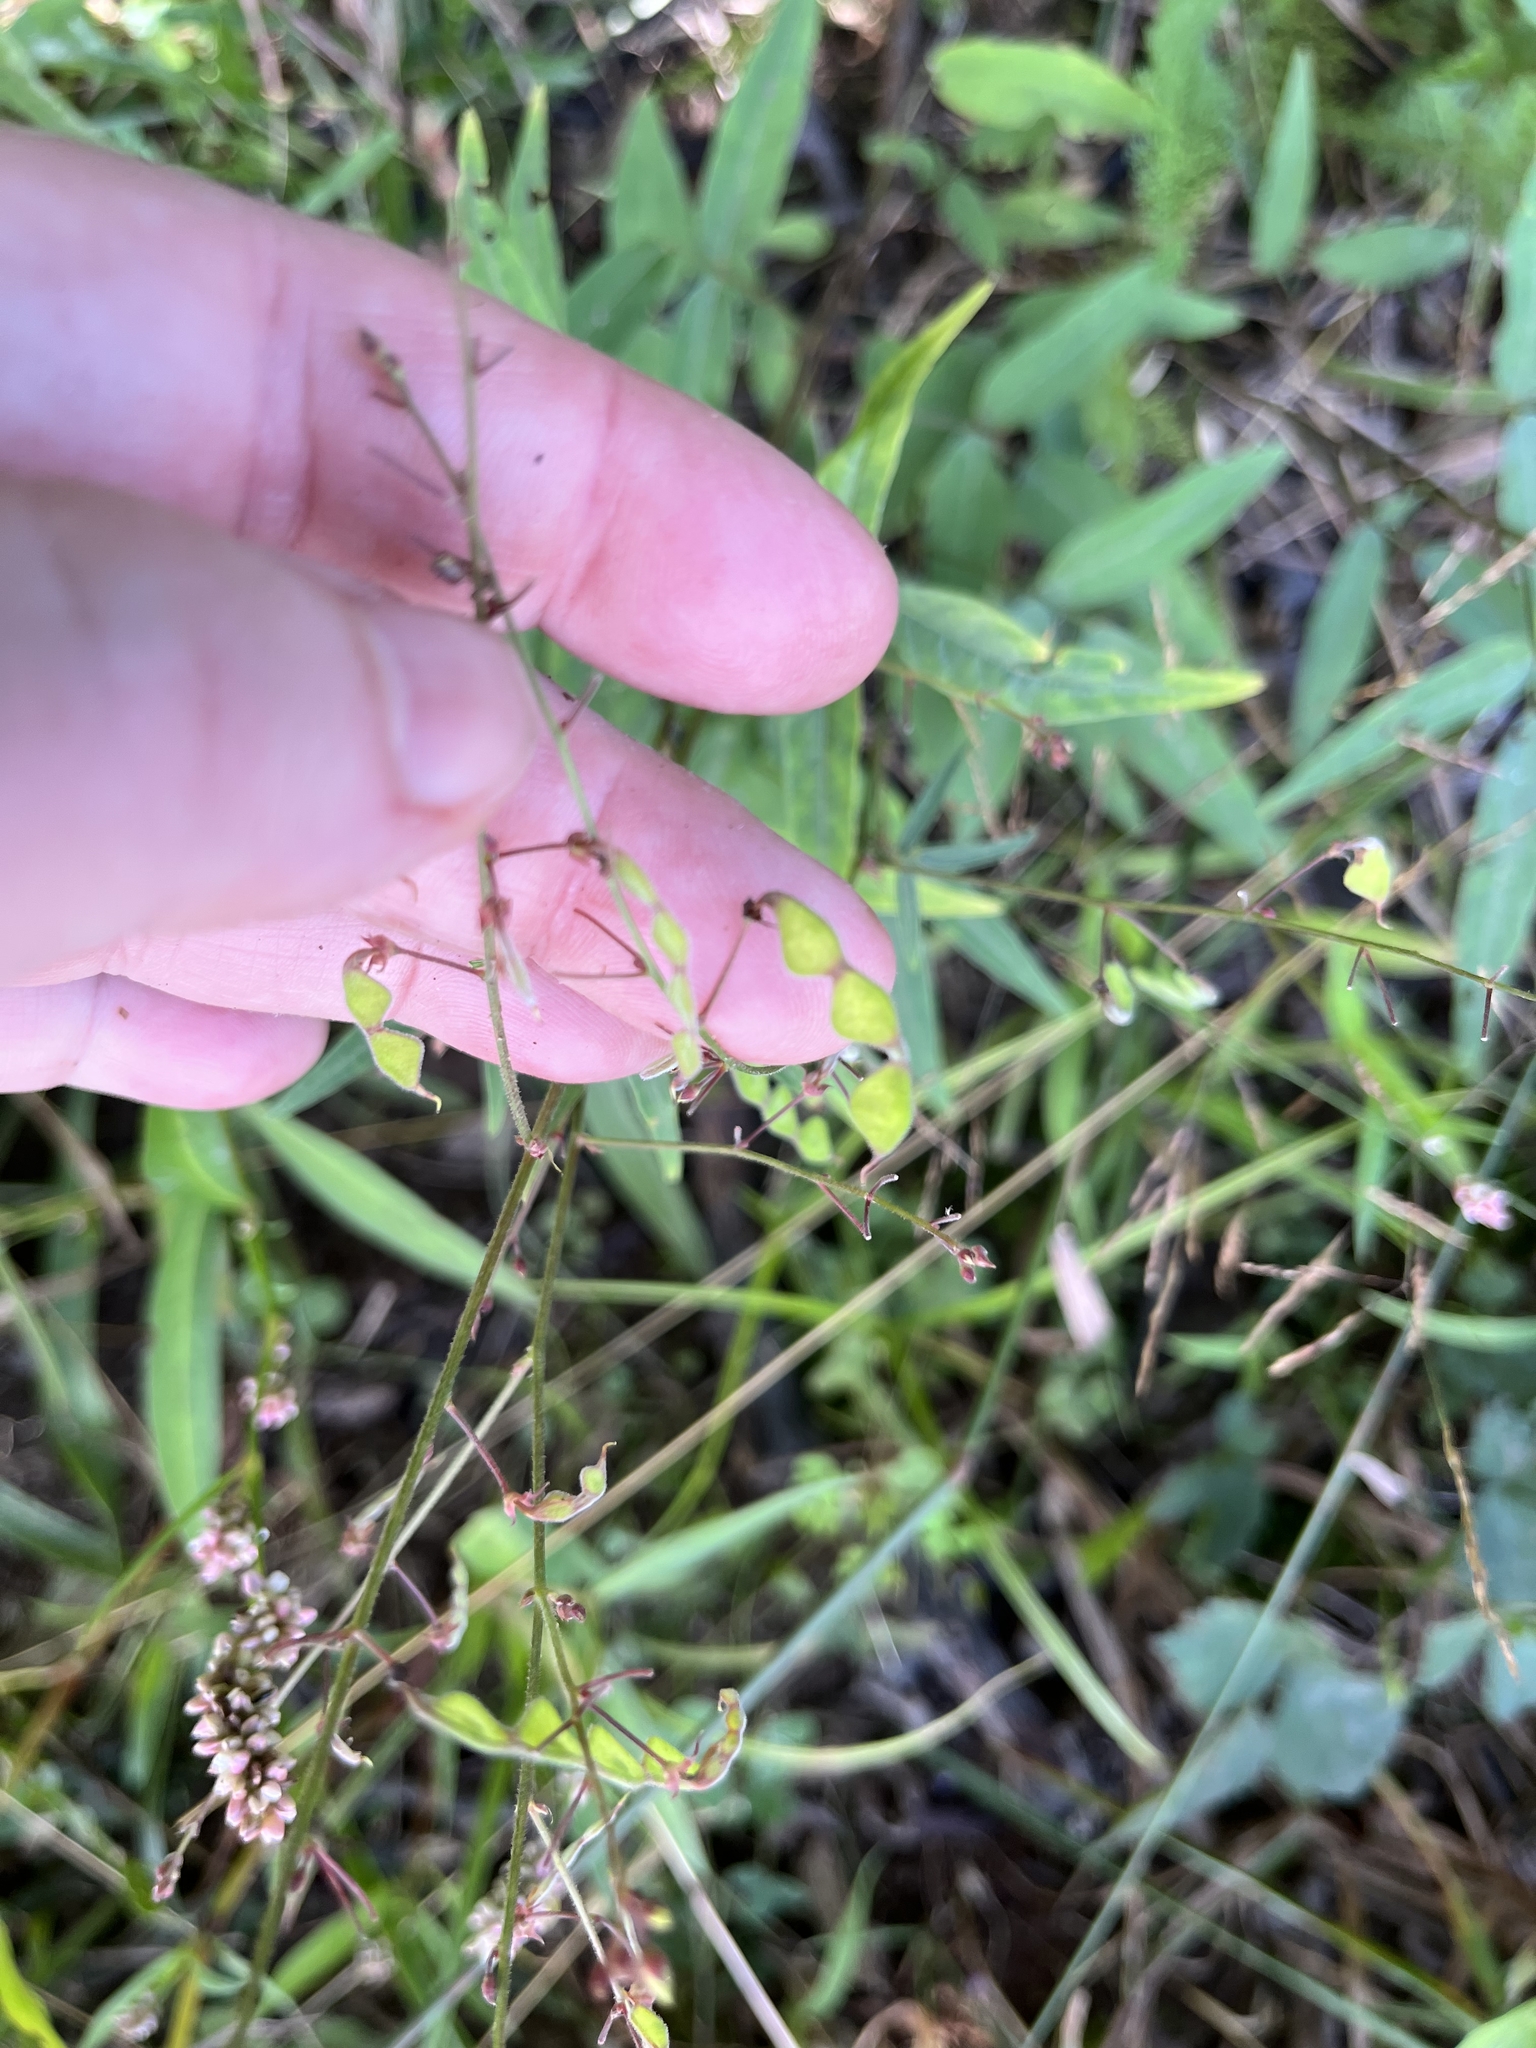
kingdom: Plantae
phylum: Tracheophyta
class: Magnoliopsida
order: Fabales
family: Fabaceae
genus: Desmodium
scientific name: Desmodium paniculatum
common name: Panicled tick-clover
